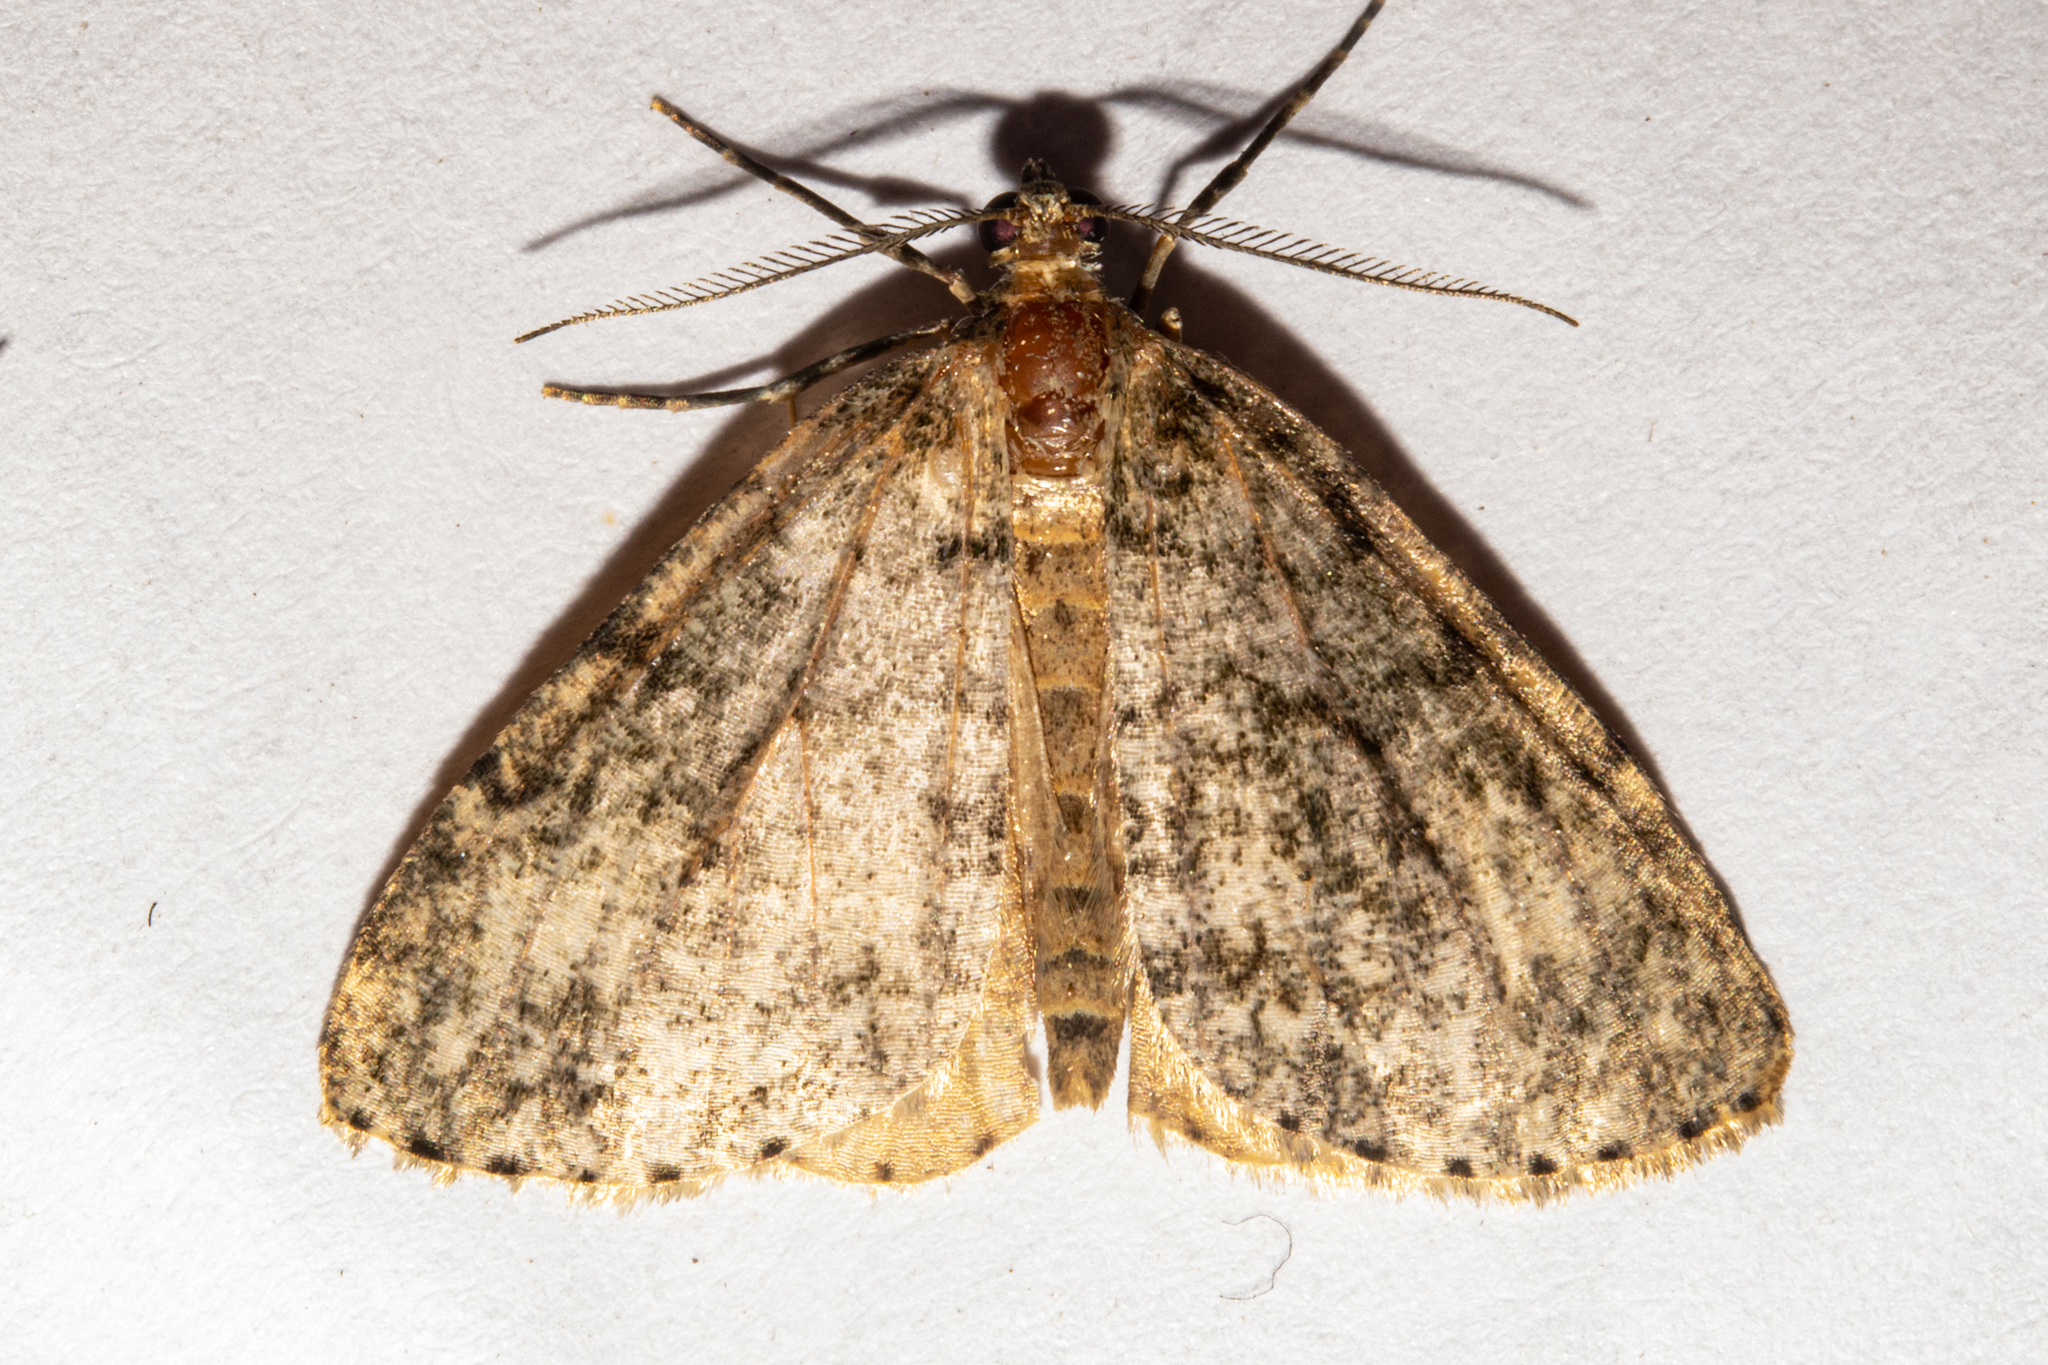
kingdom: Animalia
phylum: Arthropoda
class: Insecta
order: Lepidoptera
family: Geometridae
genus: Pseudocoremia
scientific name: Pseudocoremia indistincta
